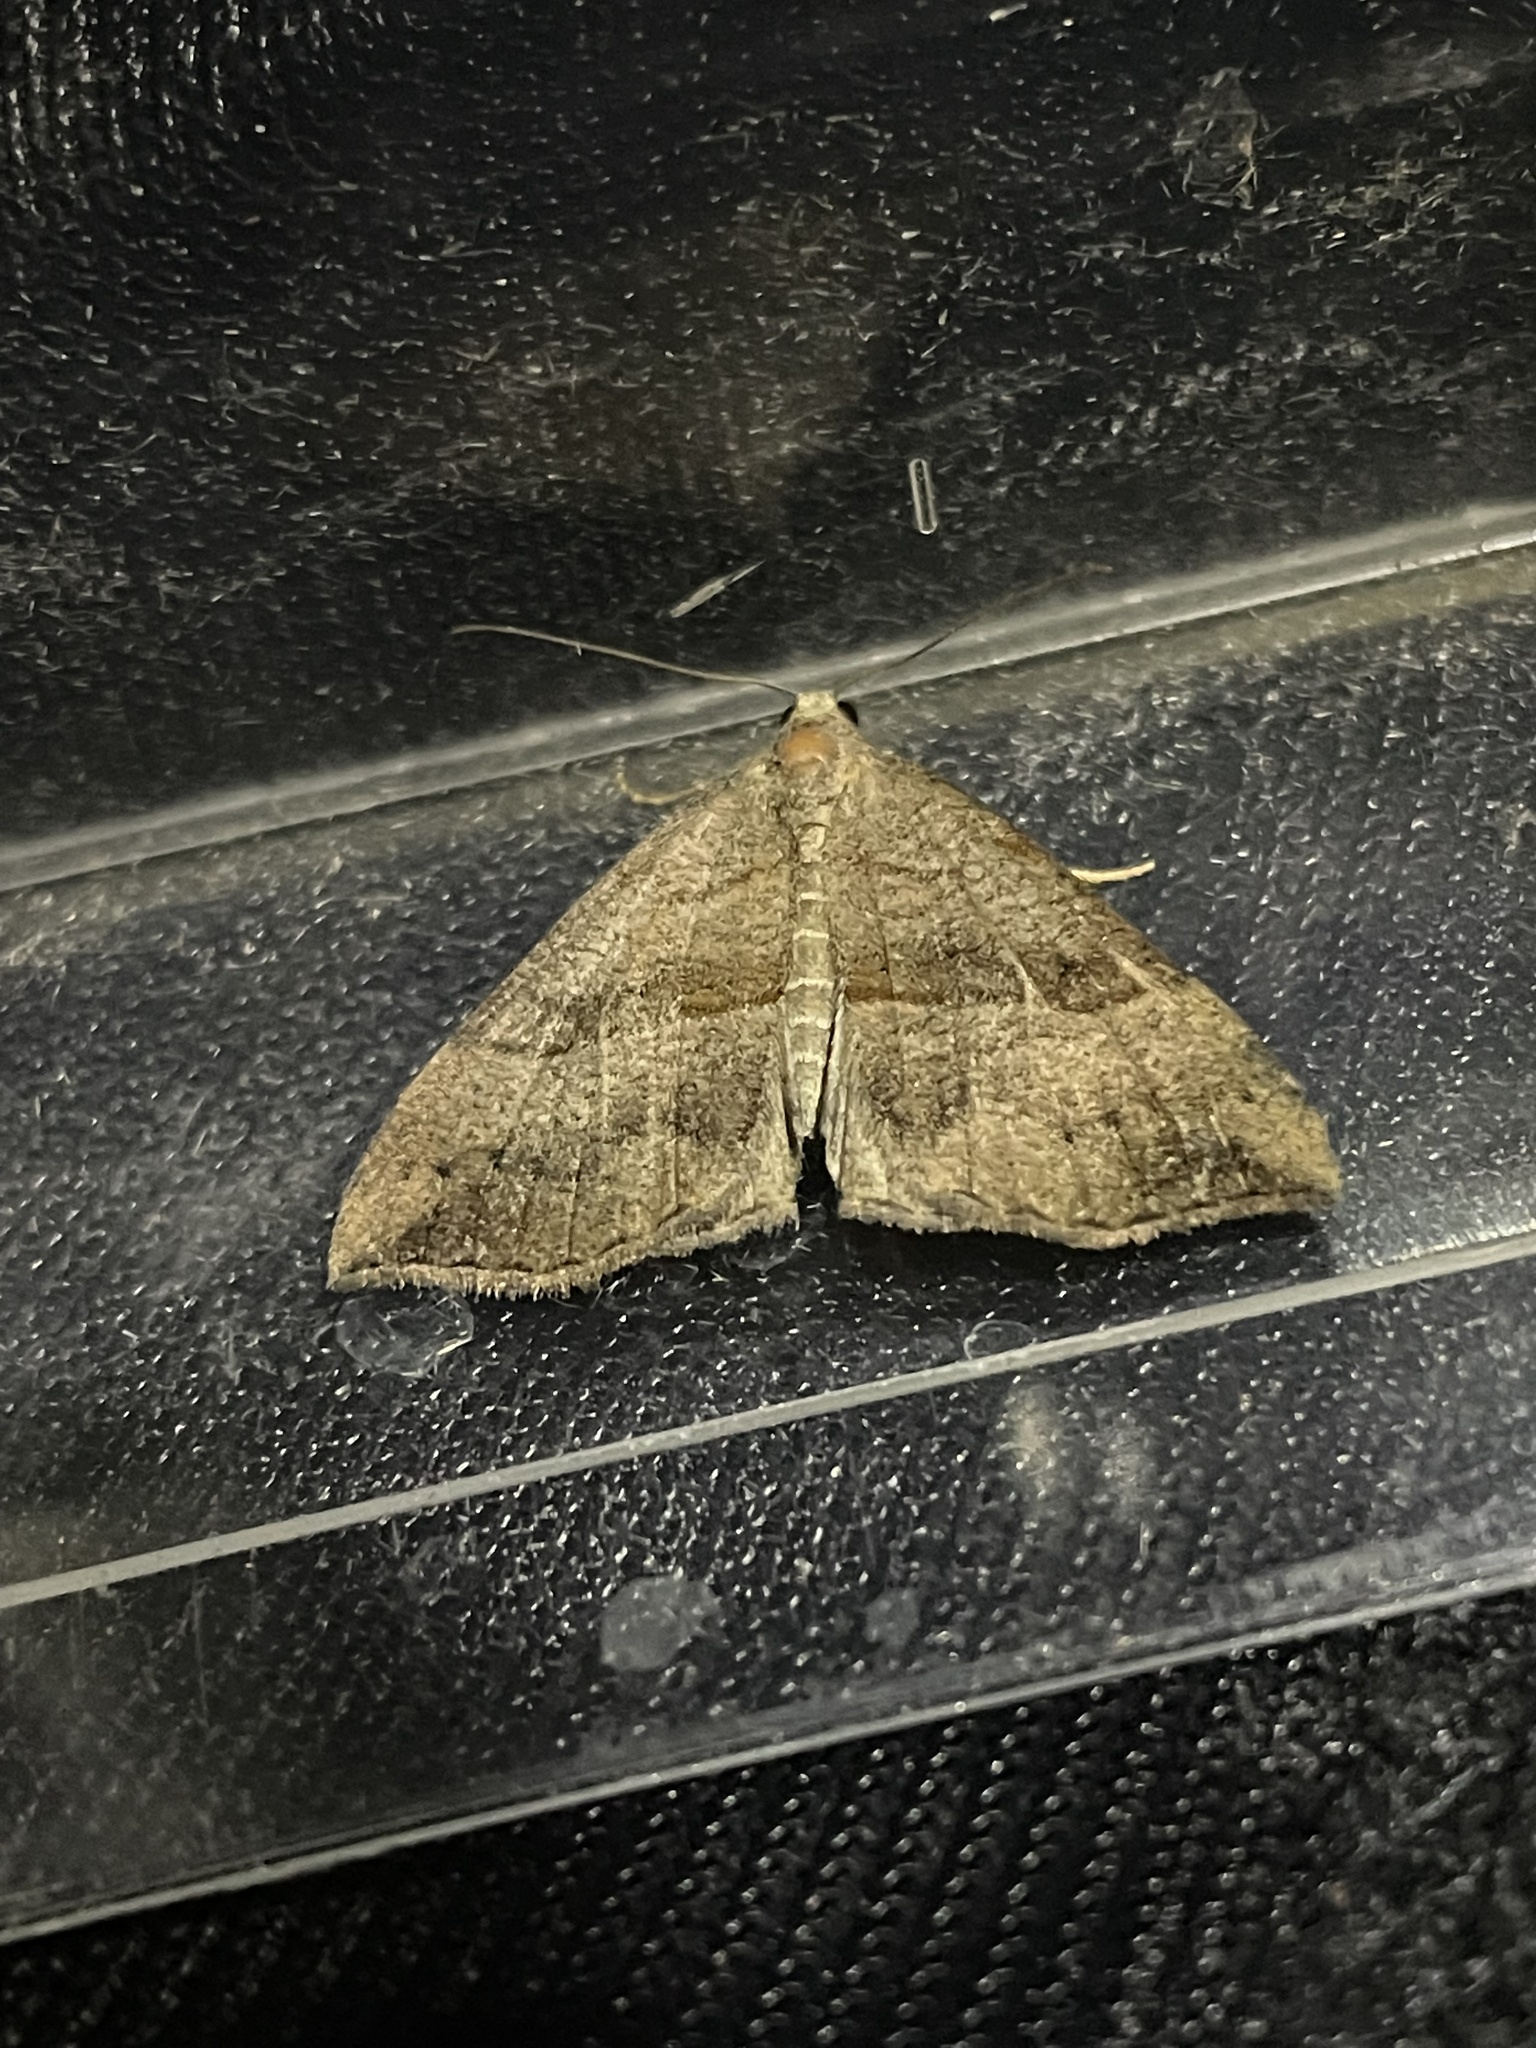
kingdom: Animalia
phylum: Arthropoda
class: Insecta
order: Lepidoptera
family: Erebidae
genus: Hypena
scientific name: Hypena proboscidalis
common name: Snout
